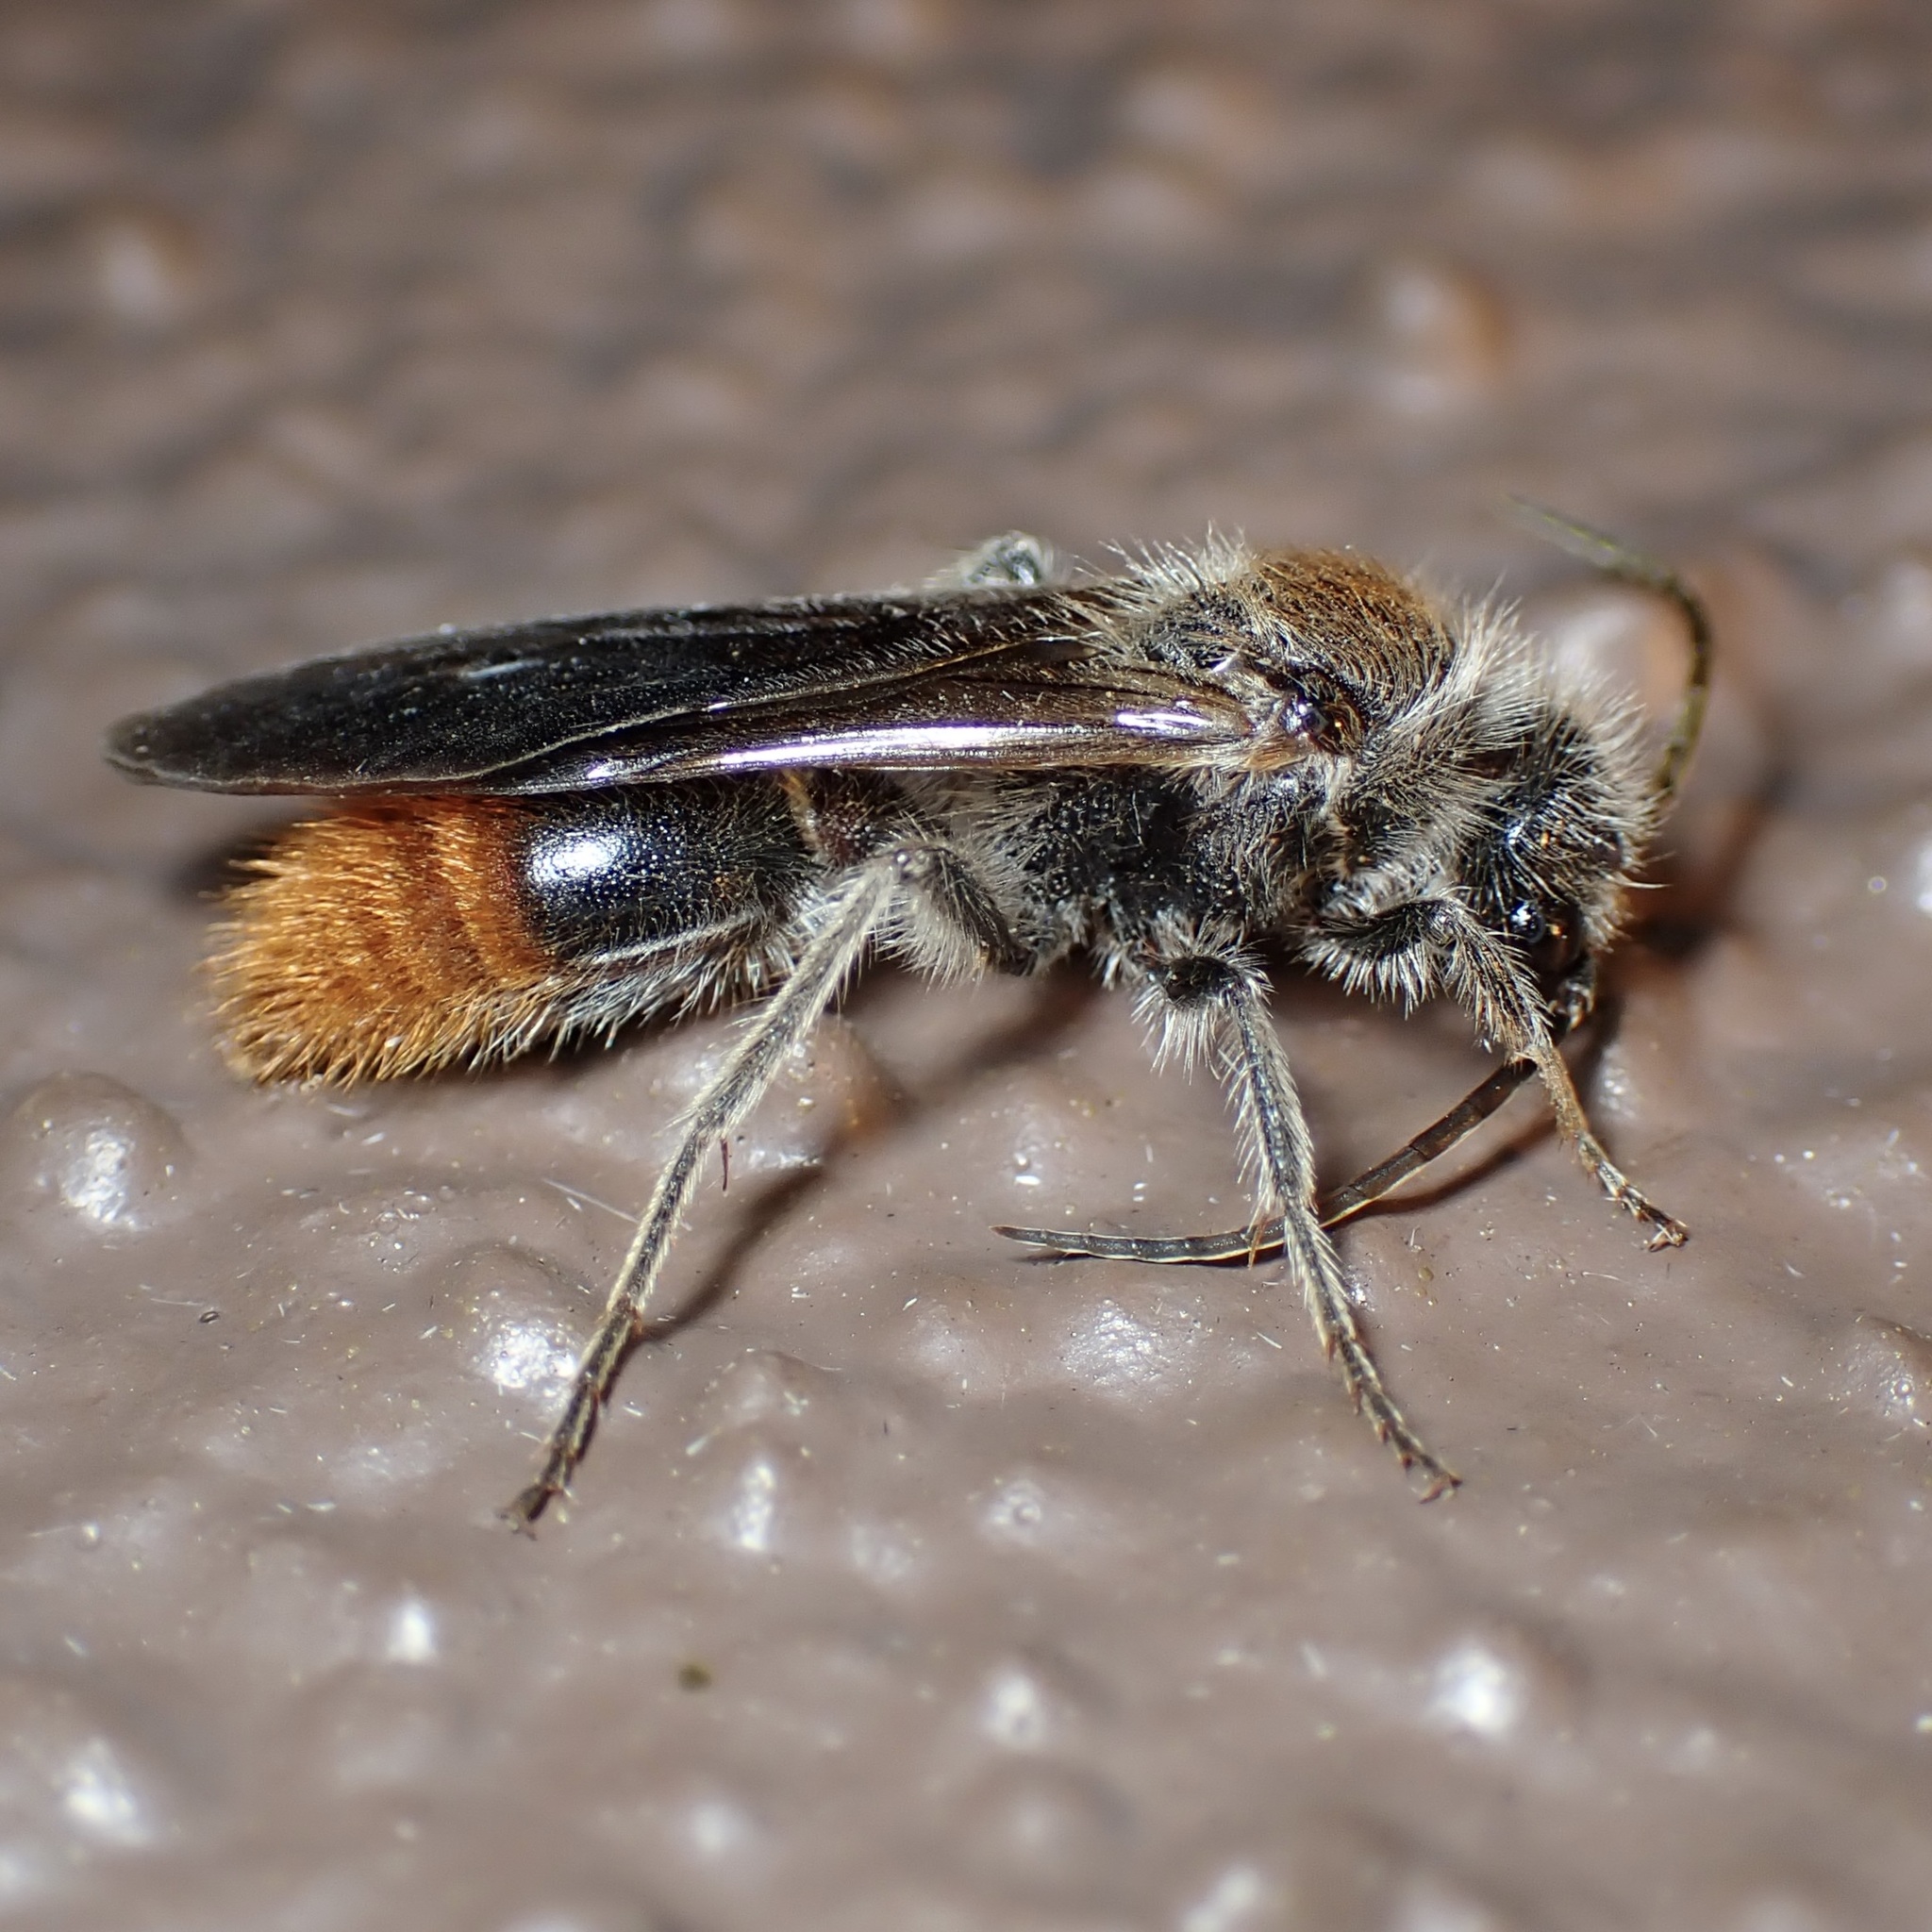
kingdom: Animalia
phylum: Arthropoda
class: Insecta
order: Hymenoptera
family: Mutillidae
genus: Sphaeropthalma
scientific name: Sphaeropthalma marpesia
